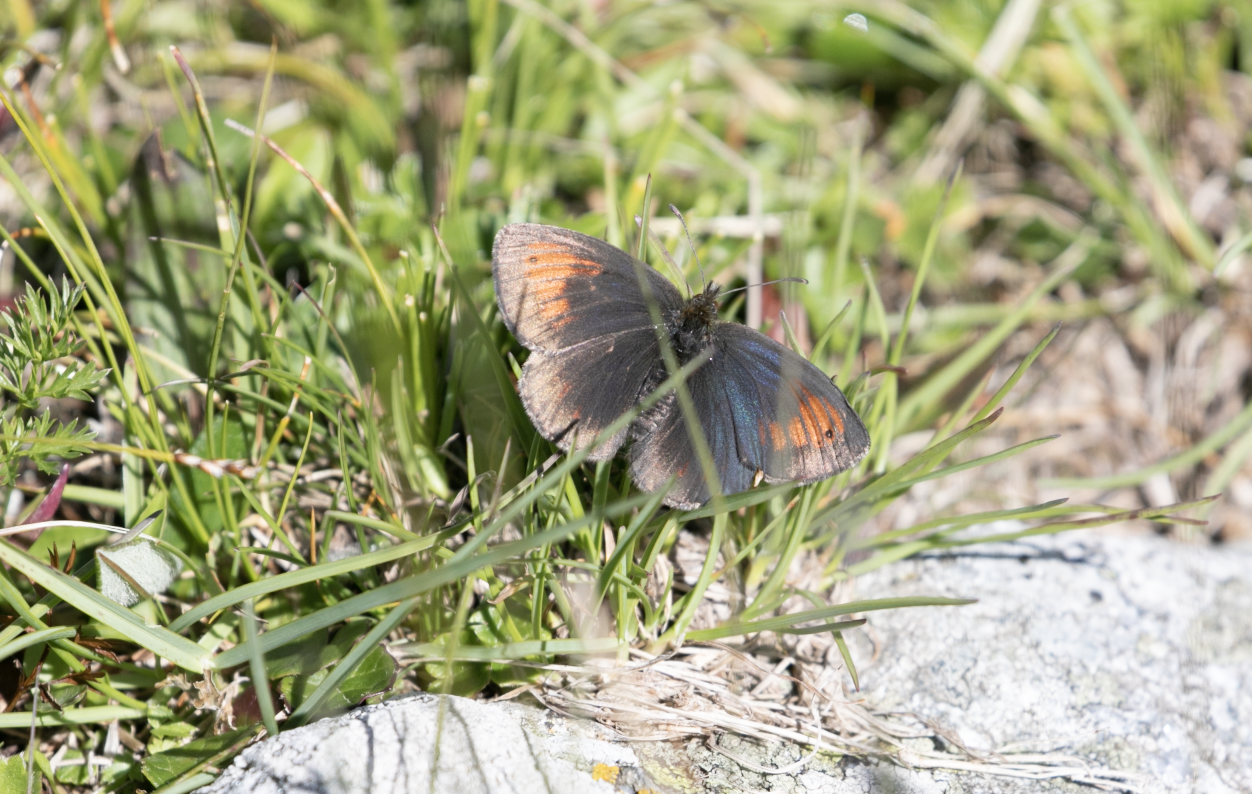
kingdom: Animalia
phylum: Arthropoda
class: Insecta
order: Lepidoptera
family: Nymphalidae
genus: Erebia
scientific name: Erebia tyndarus
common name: Swiss brassy ringlet
